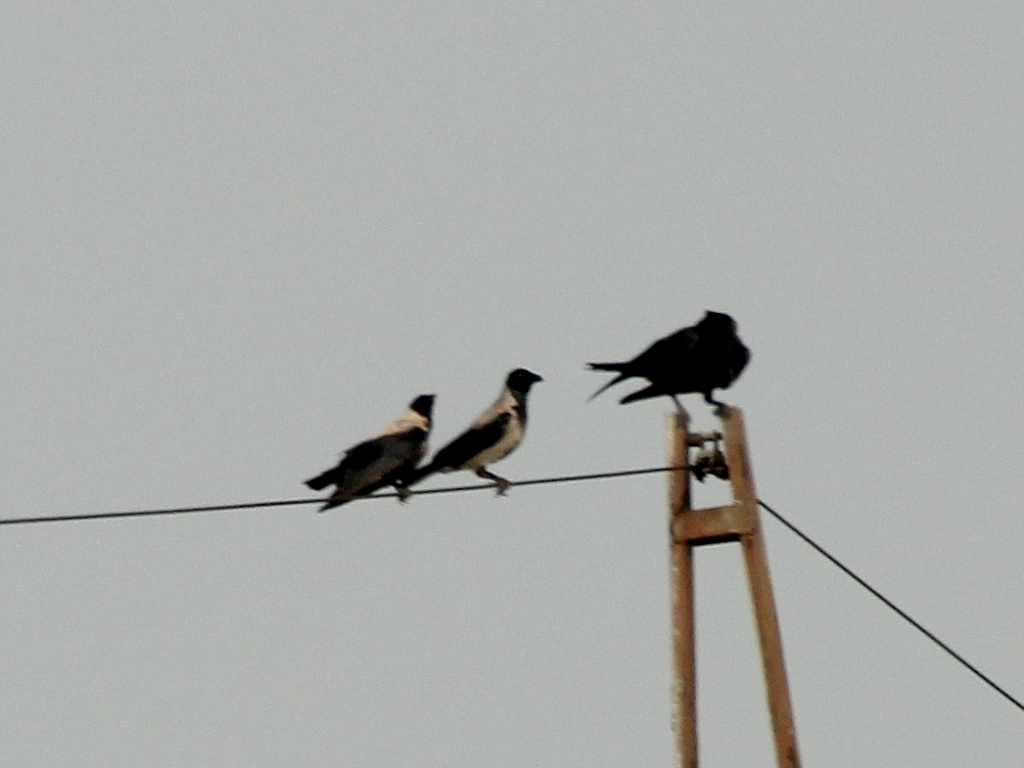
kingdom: Animalia
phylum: Chordata
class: Aves
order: Passeriformes
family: Corvidae
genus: Corvus
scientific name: Corvus cornix
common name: Hooded crow
